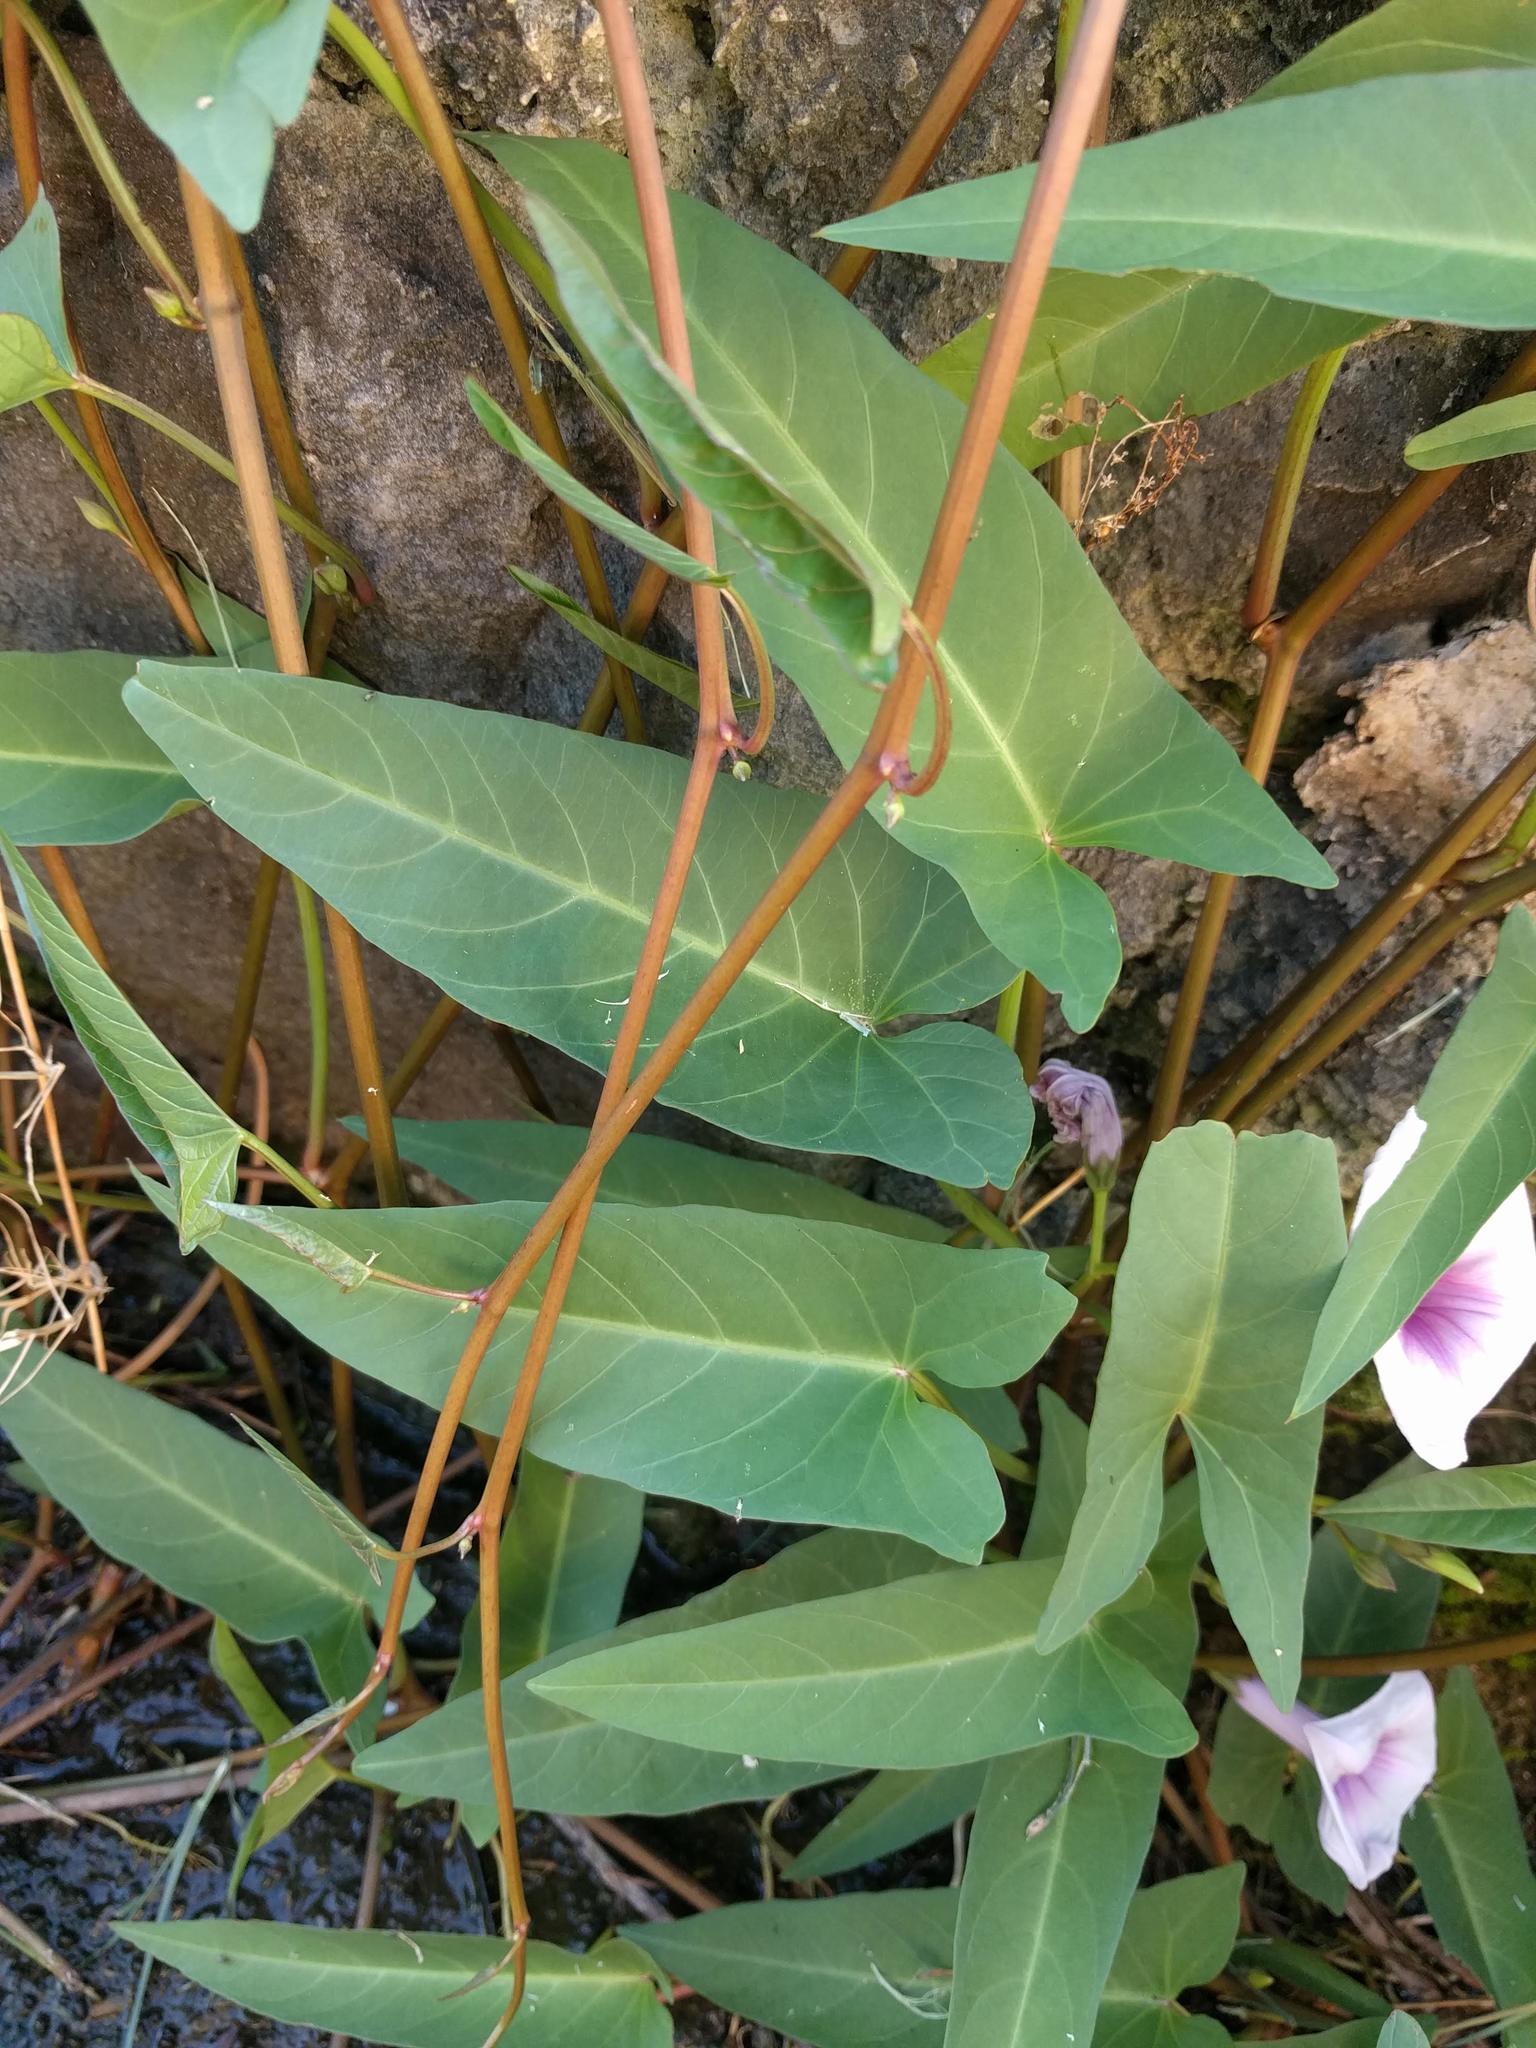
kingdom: Plantae
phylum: Tracheophyta
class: Magnoliopsida
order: Solanales
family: Convolvulaceae
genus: Ipomoea
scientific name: Ipomoea aquatica
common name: Swamp morning-glory
